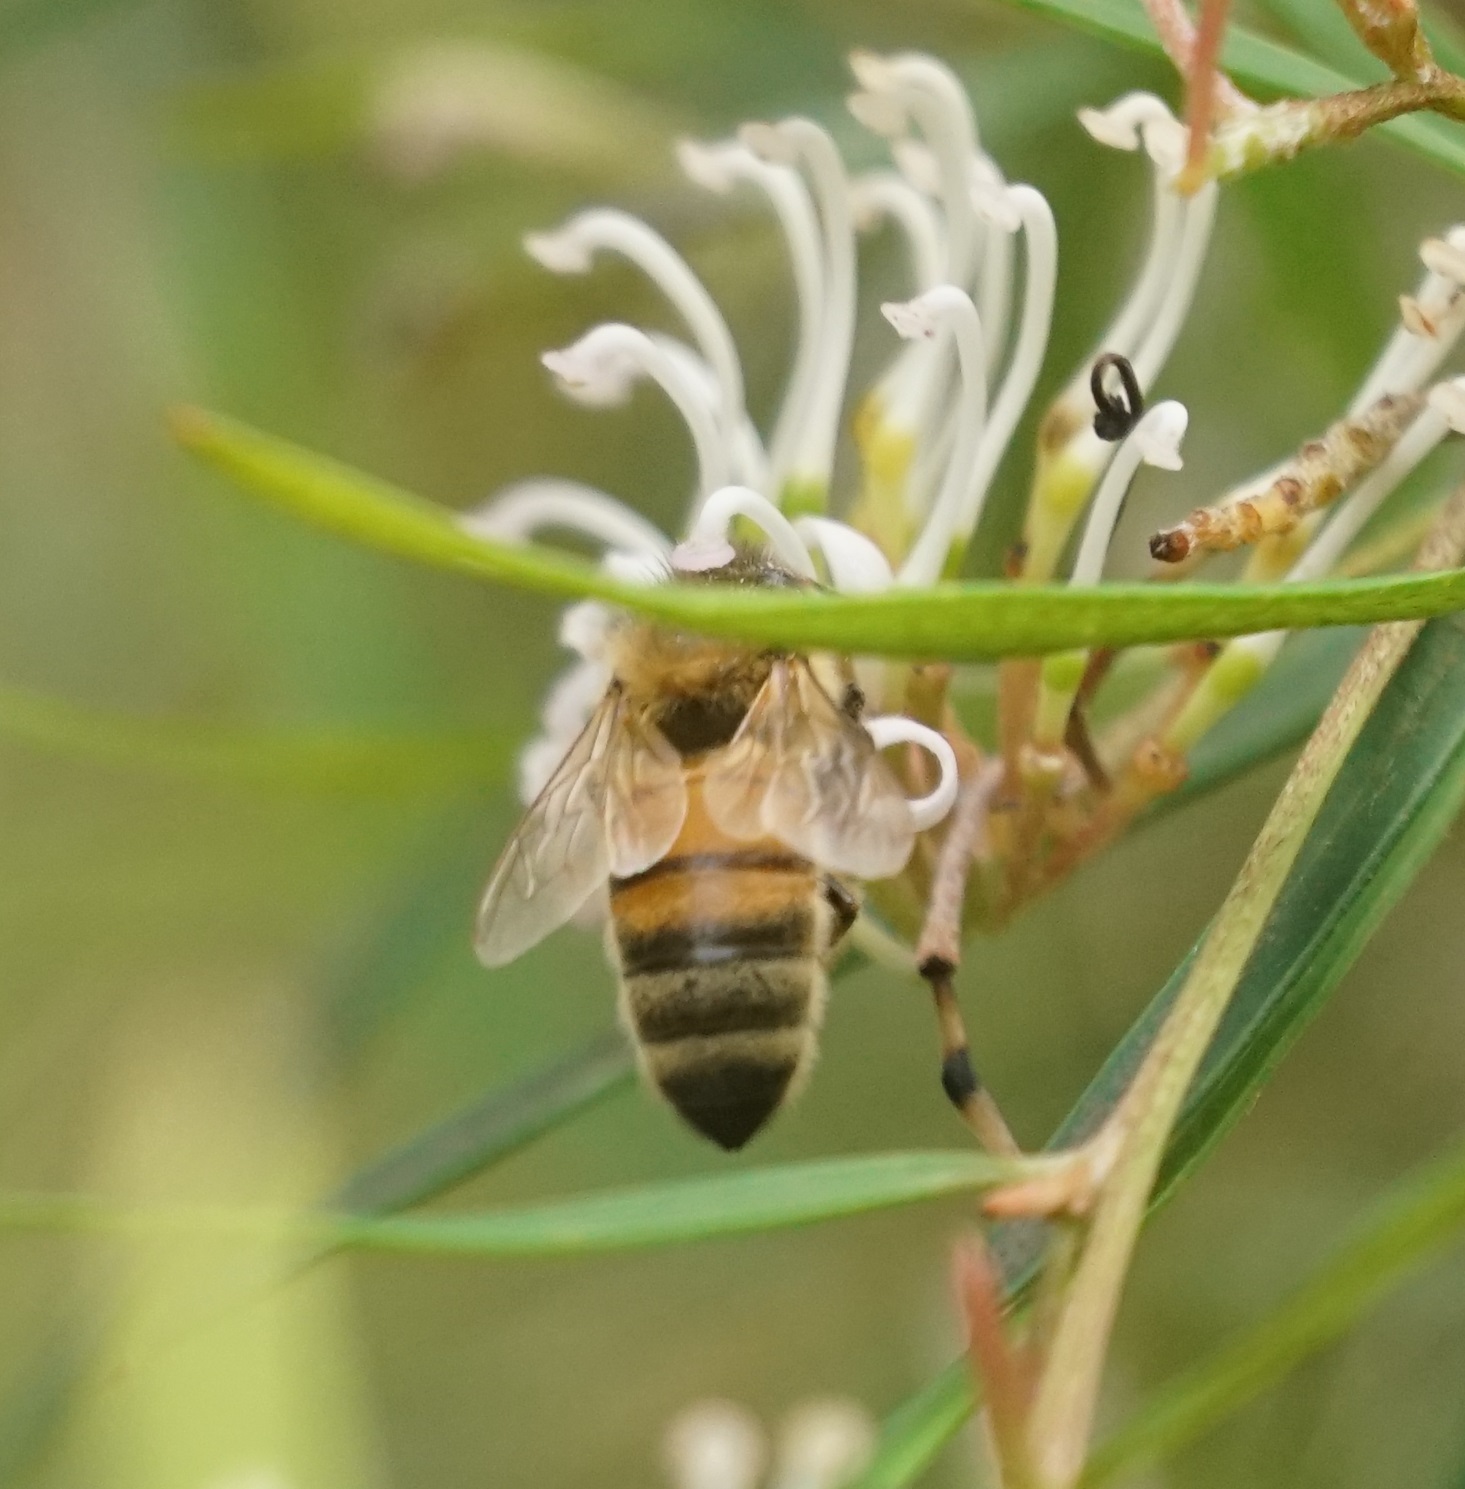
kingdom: Animalia
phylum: Arthropoda
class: Insecta
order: Hymenoptera
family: Apidae
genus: Apis
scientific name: Apis mellifera
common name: Honey bee
